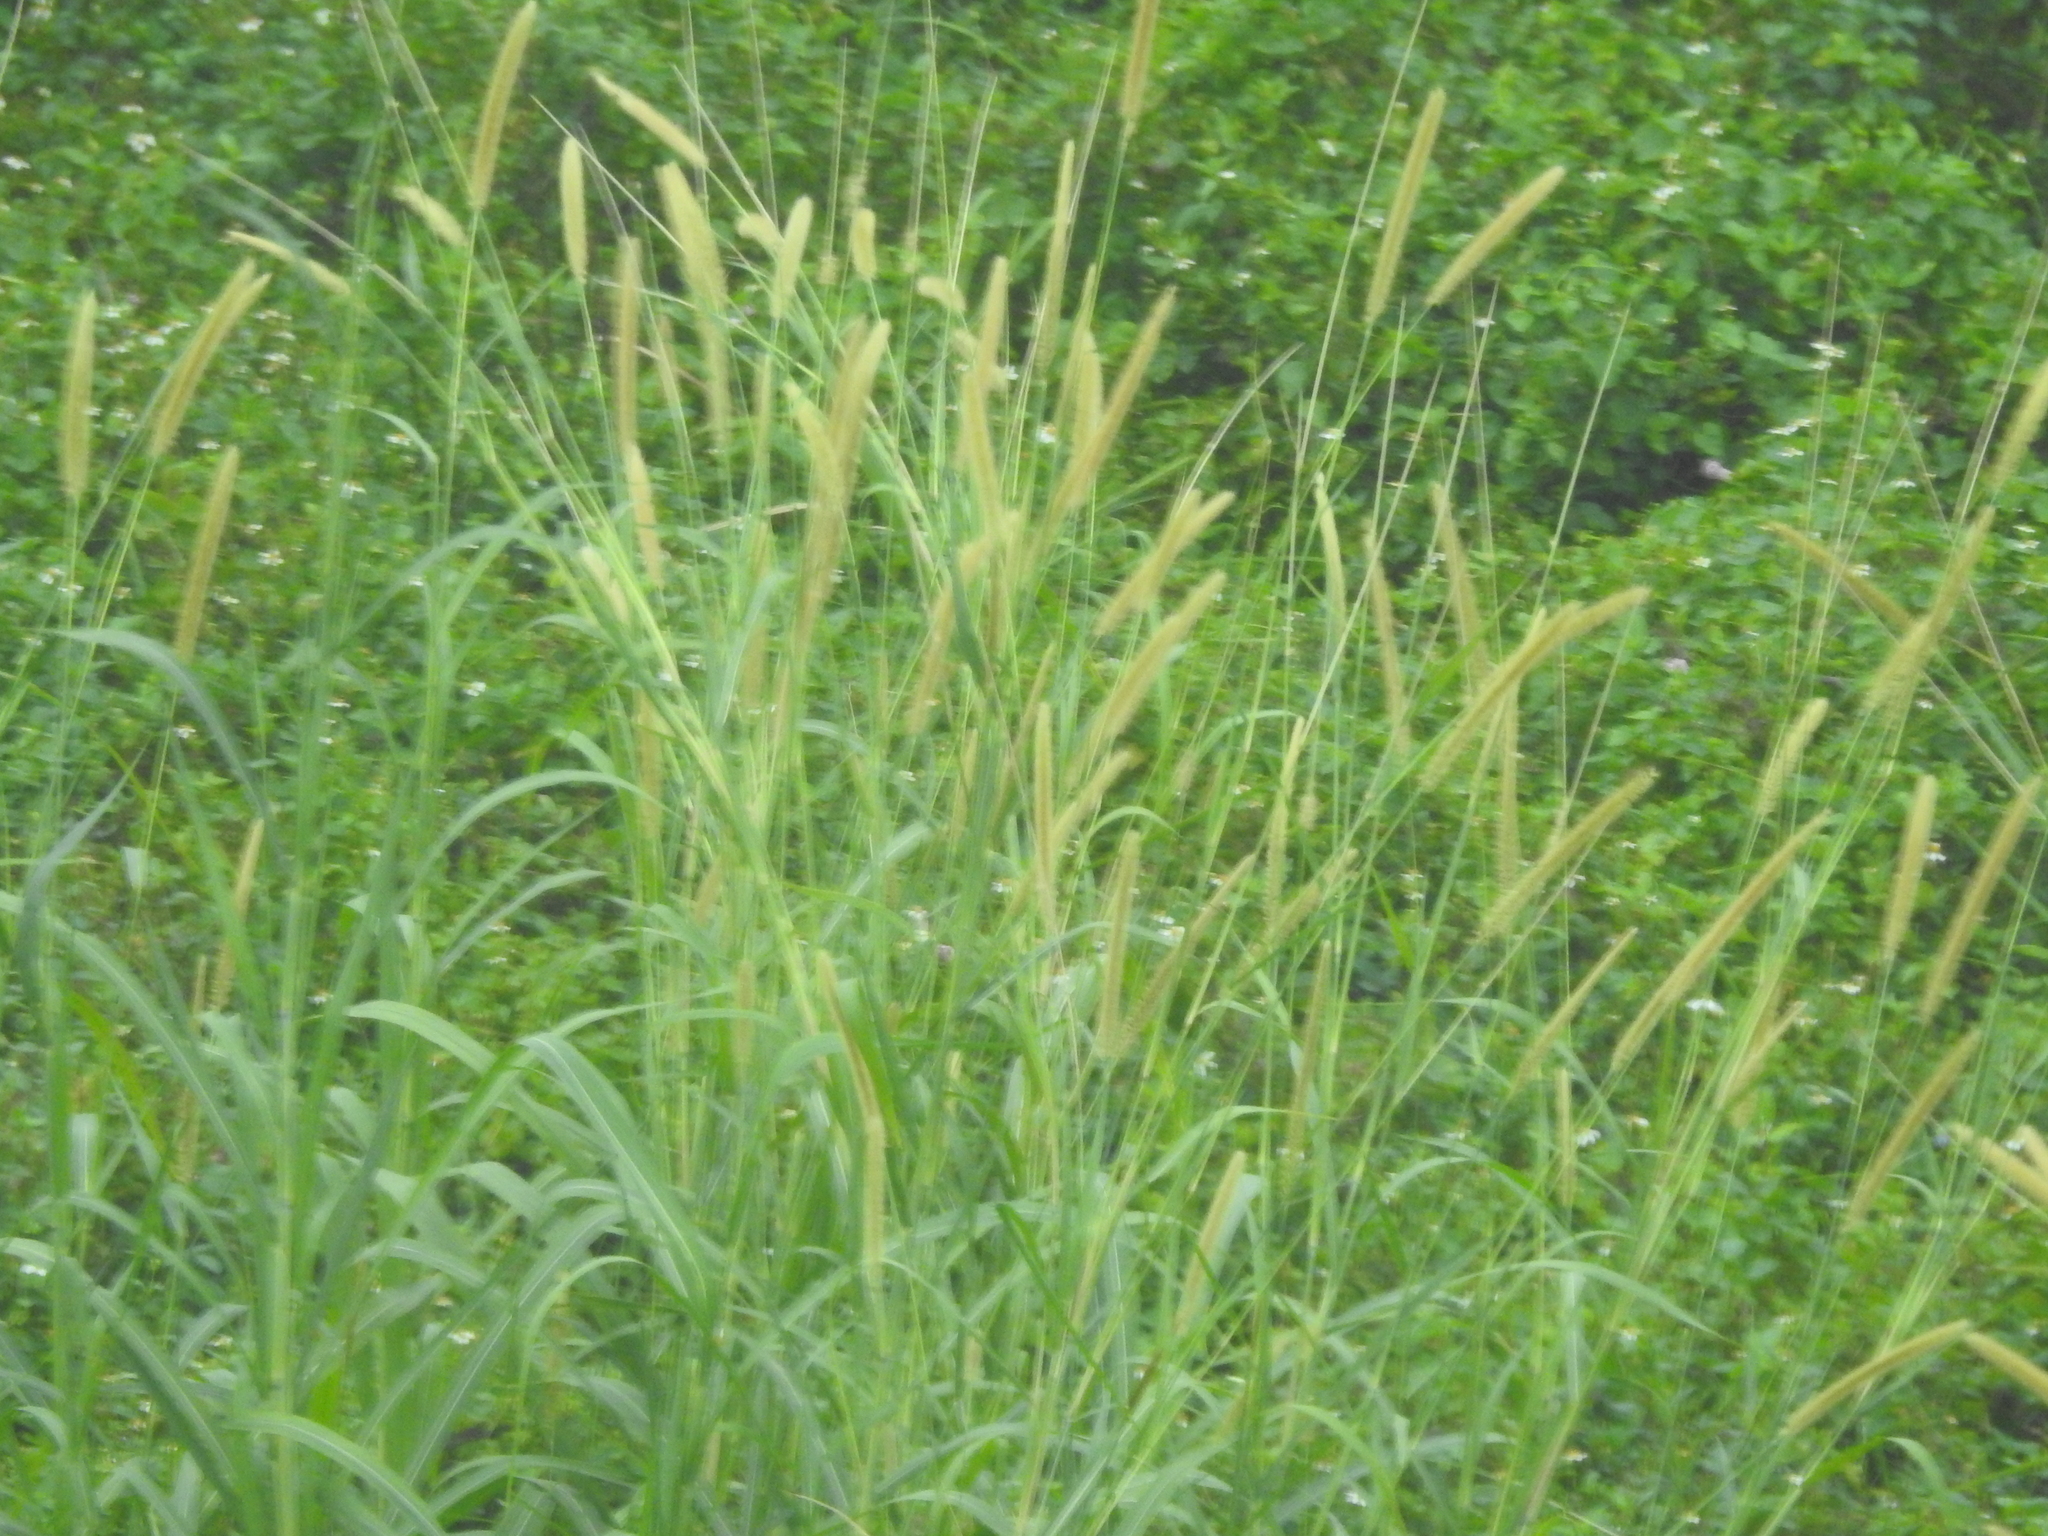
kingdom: Plantae
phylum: Tracheophyta
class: Liliopsida
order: Poales
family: Poaceae
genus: Cenchrus
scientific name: Cenchrus purpureus
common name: Elephant grass
